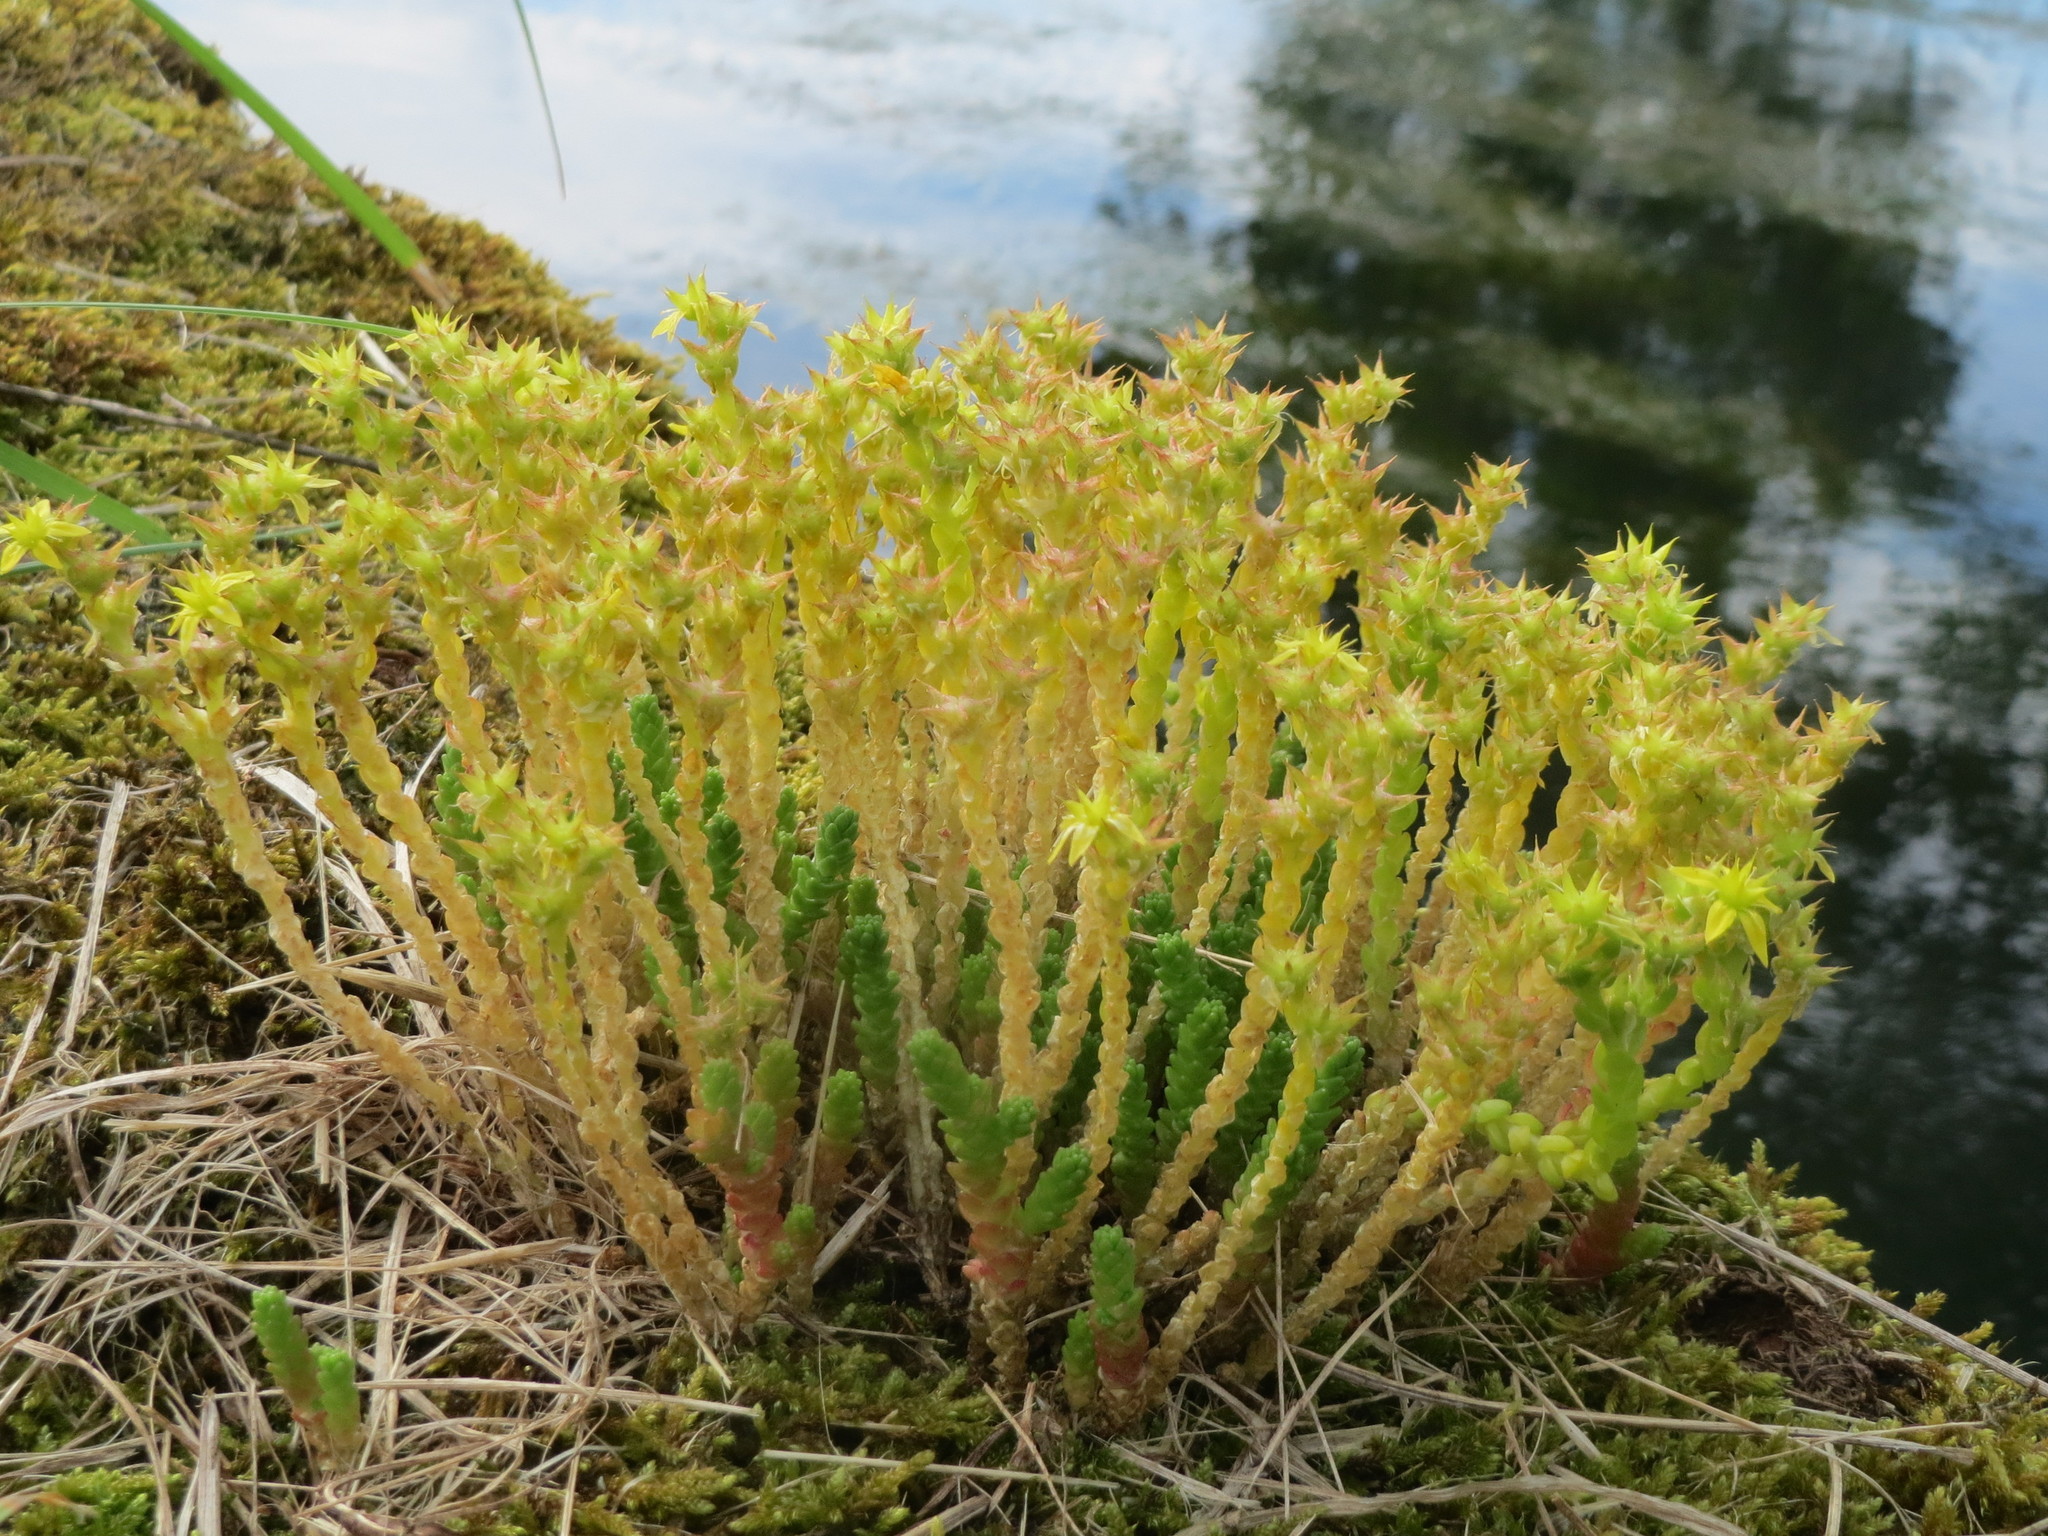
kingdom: Plantae
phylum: Tracheophyta
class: Magnoliopsida
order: Saxifragales
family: Crassulaceae
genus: Sedum
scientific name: Sedum acre
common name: Biting stonecrop
